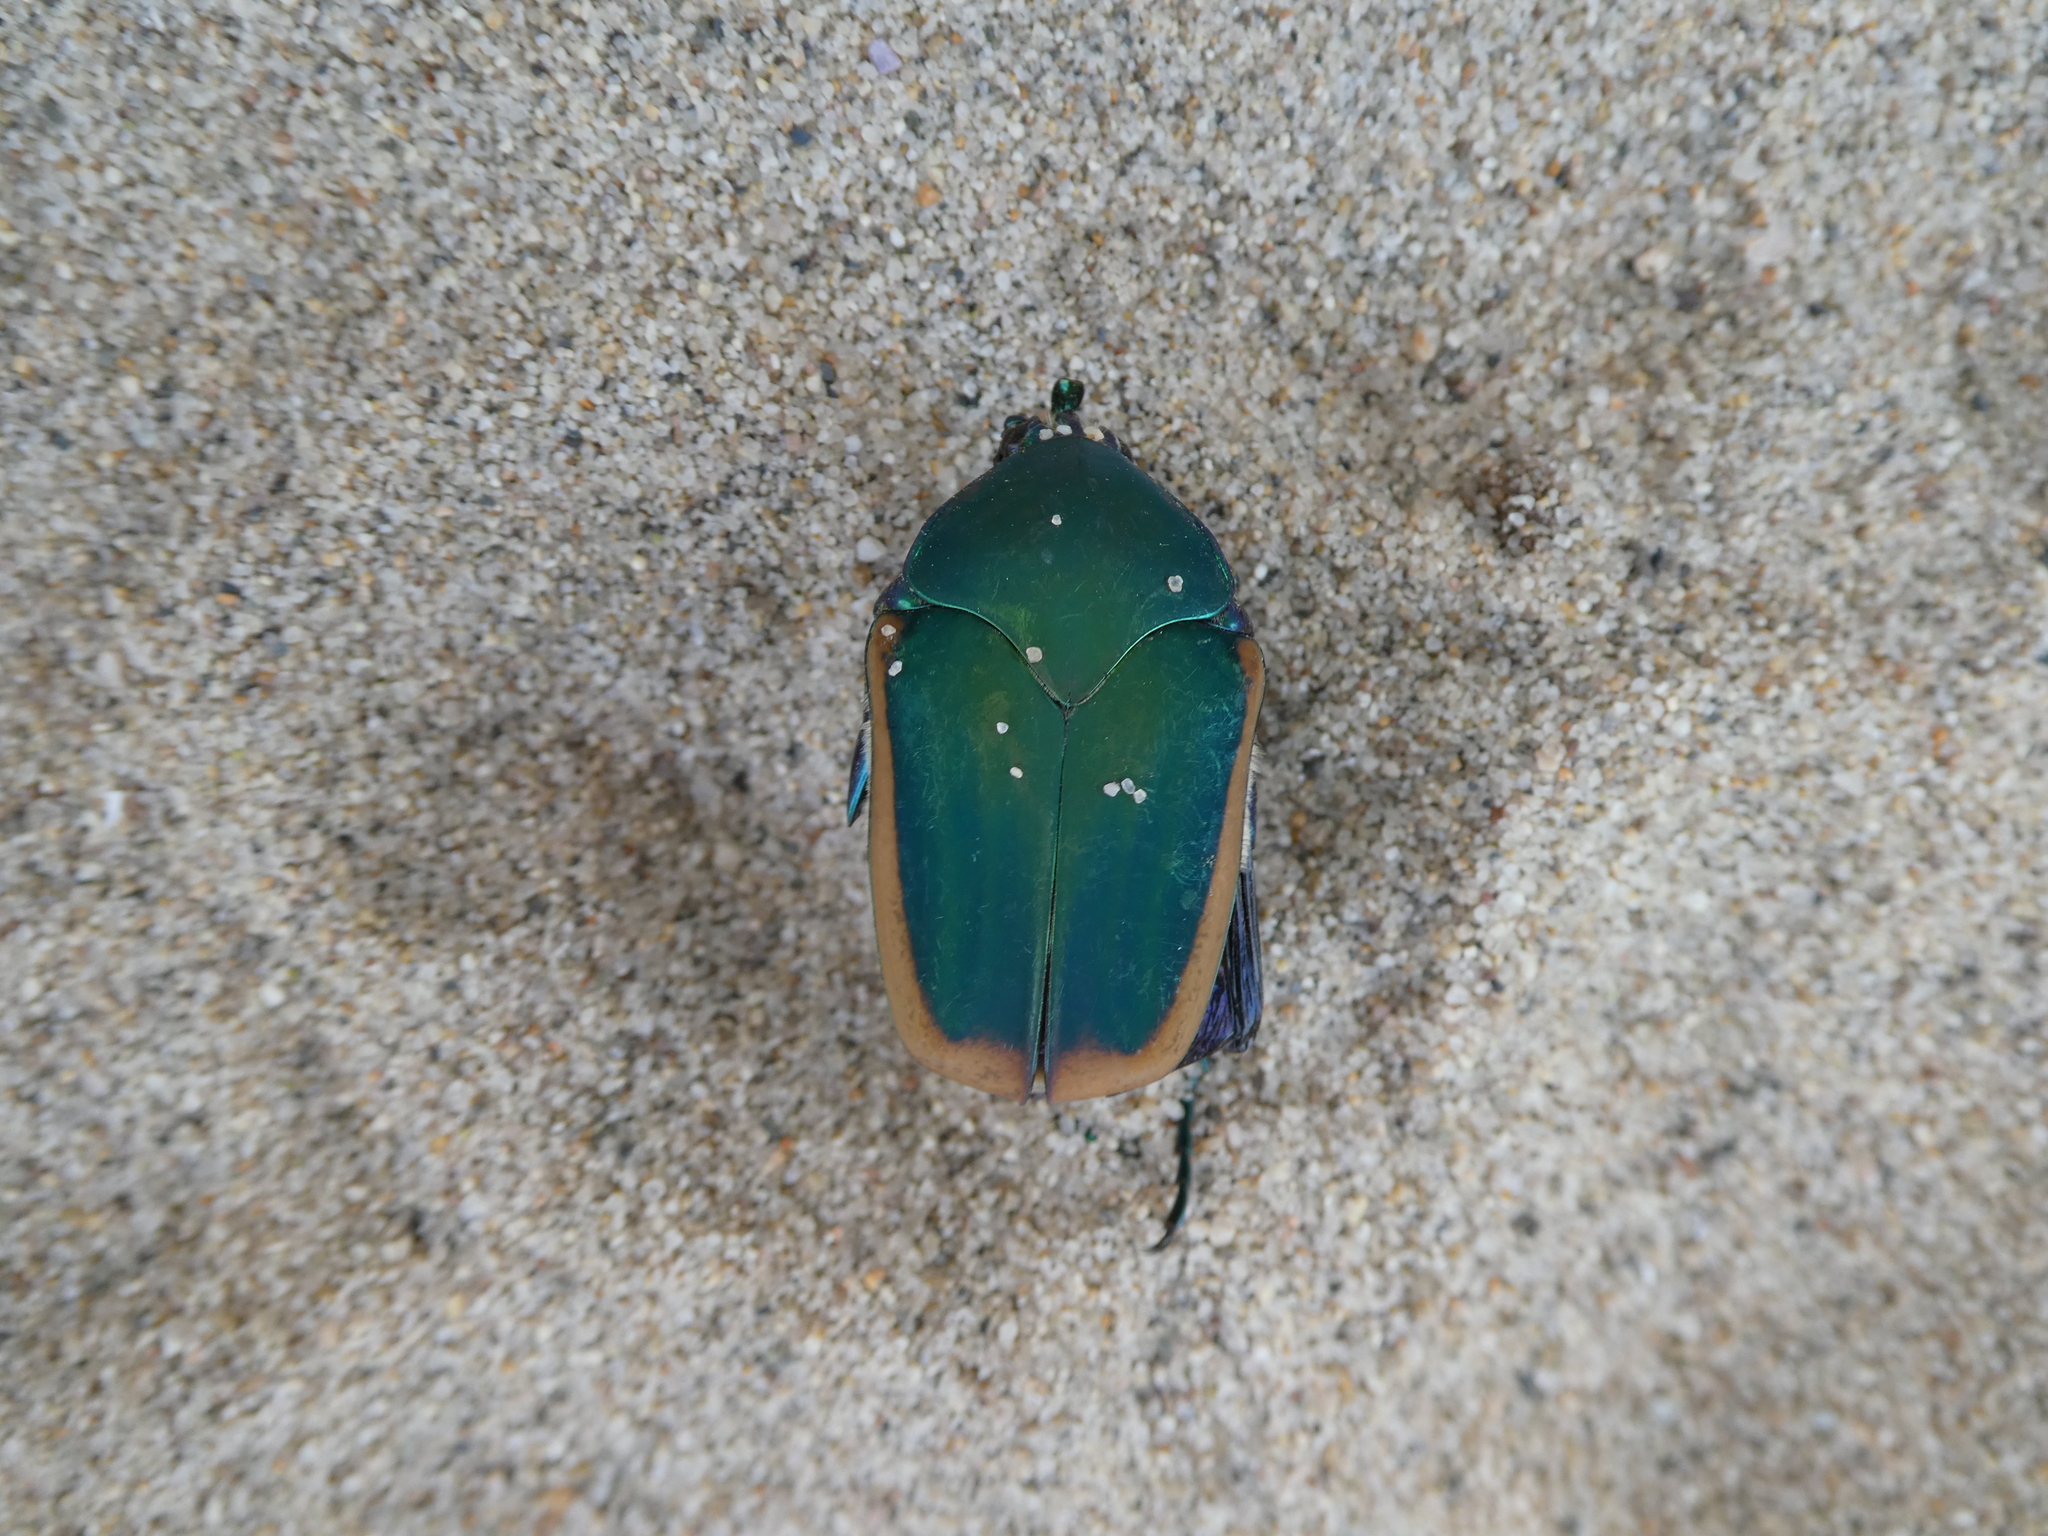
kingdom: Animalia
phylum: Arthropoda
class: Insecta
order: Coleoptera
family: Scarabaeidae
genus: Cotinis
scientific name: Cotinis mutabilis
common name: Figeater beetle
